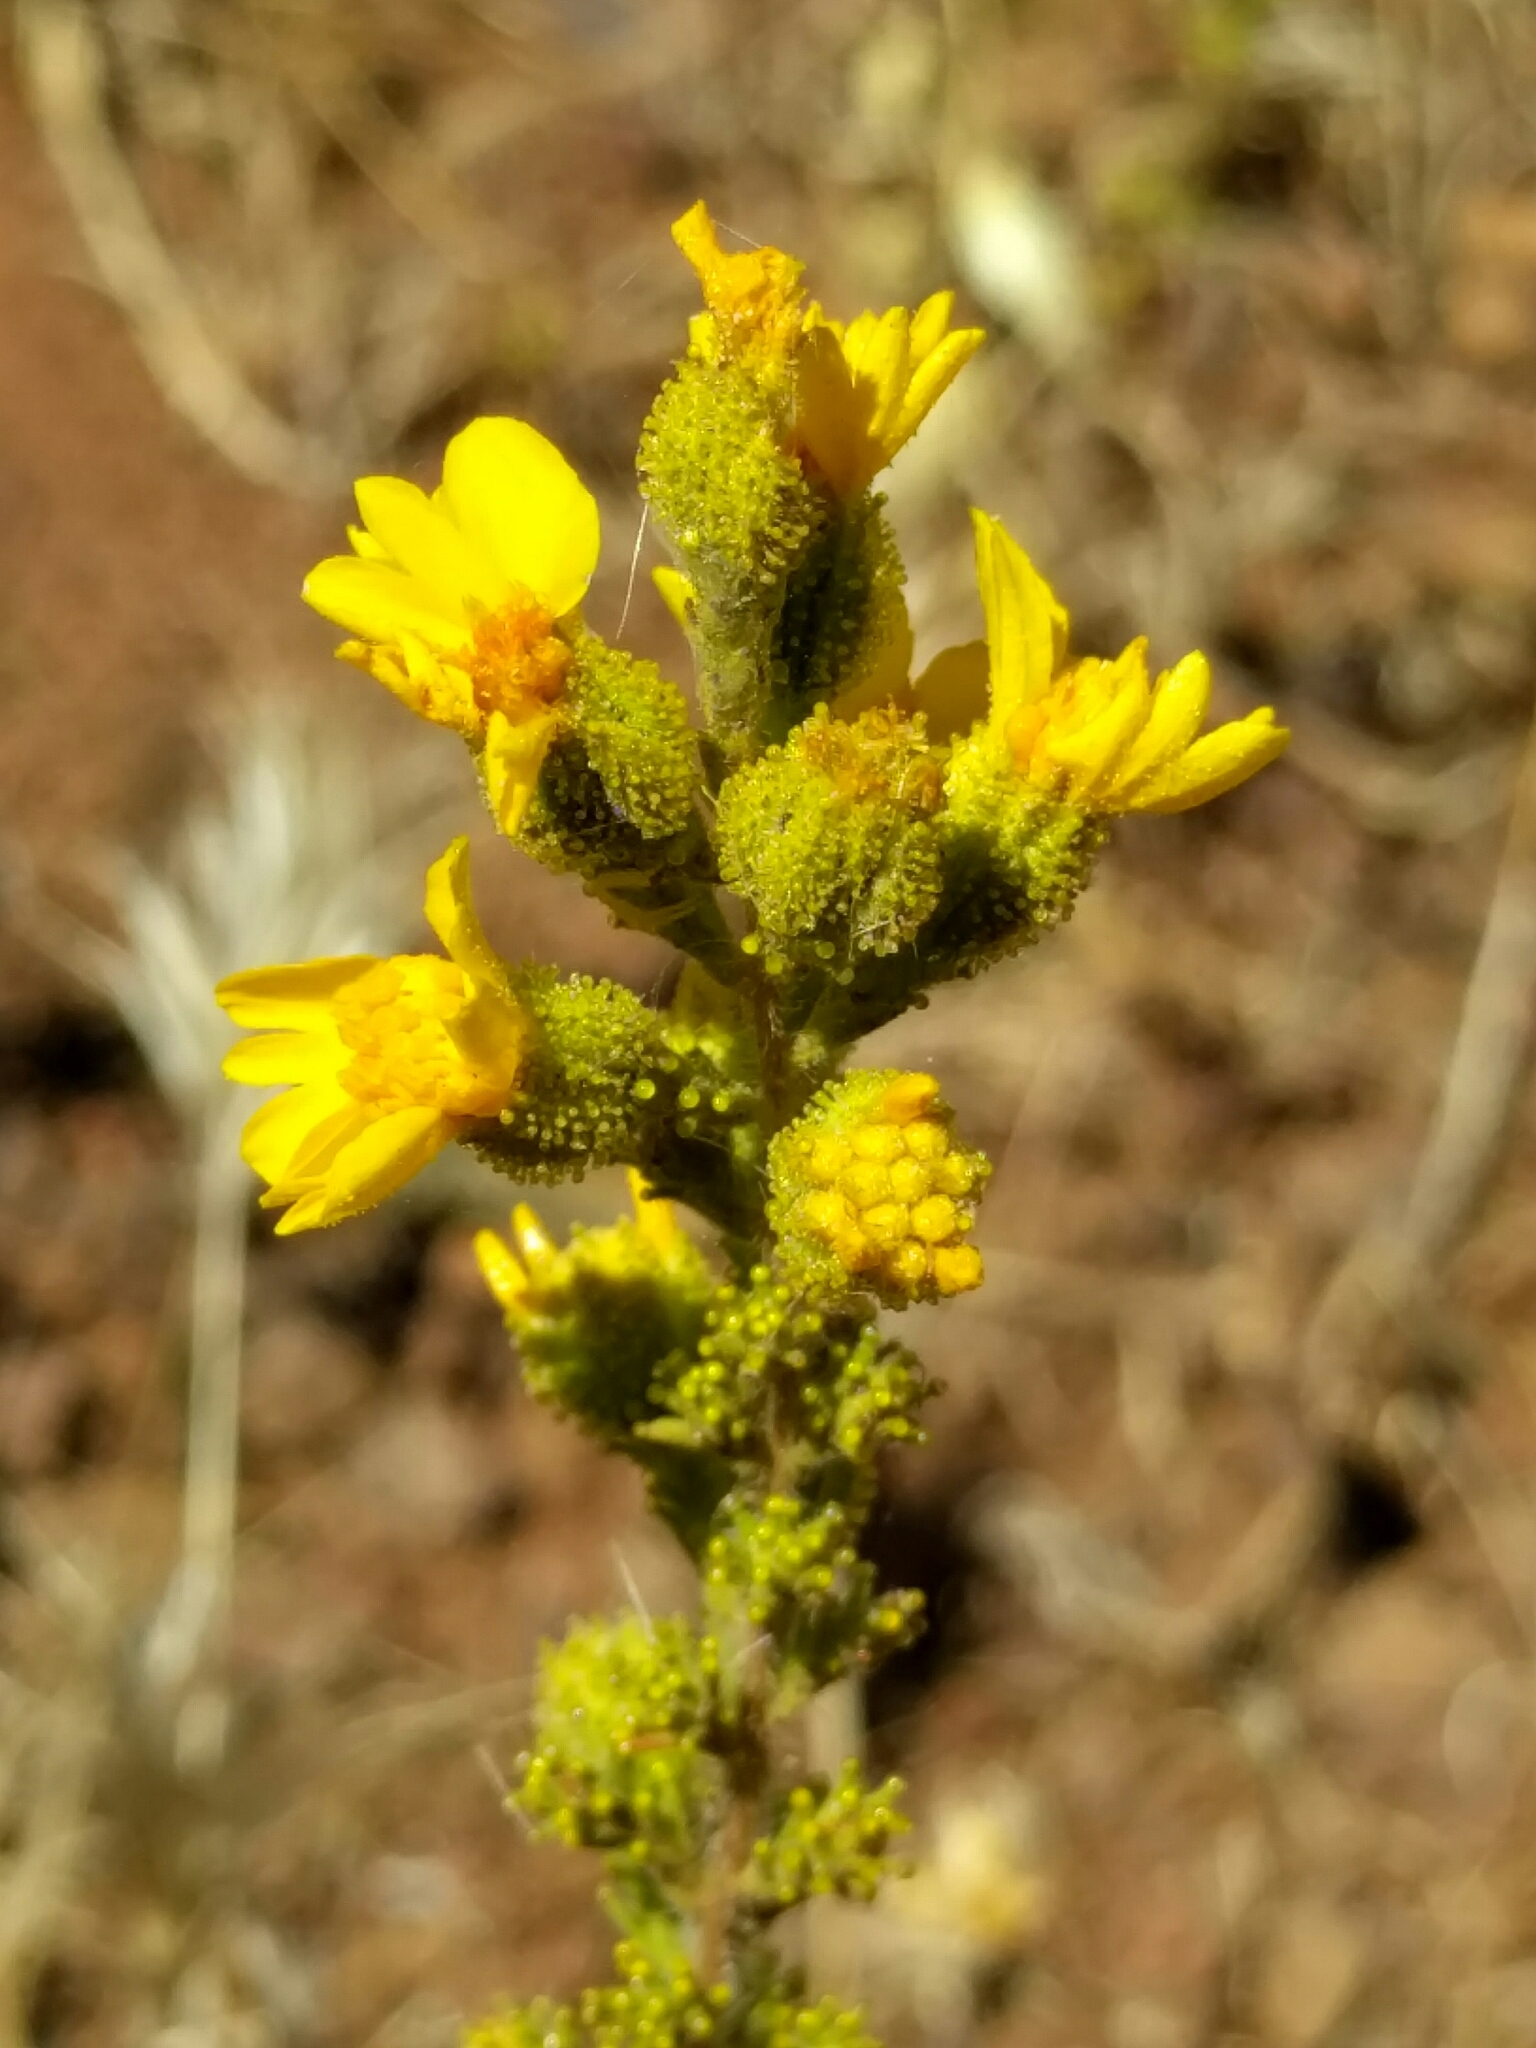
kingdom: Plantae
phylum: Tracheophyta
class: Magnoliopsida
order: Asterales
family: Asteraceae
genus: Holocarpha
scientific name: Holocarpha heermannii
